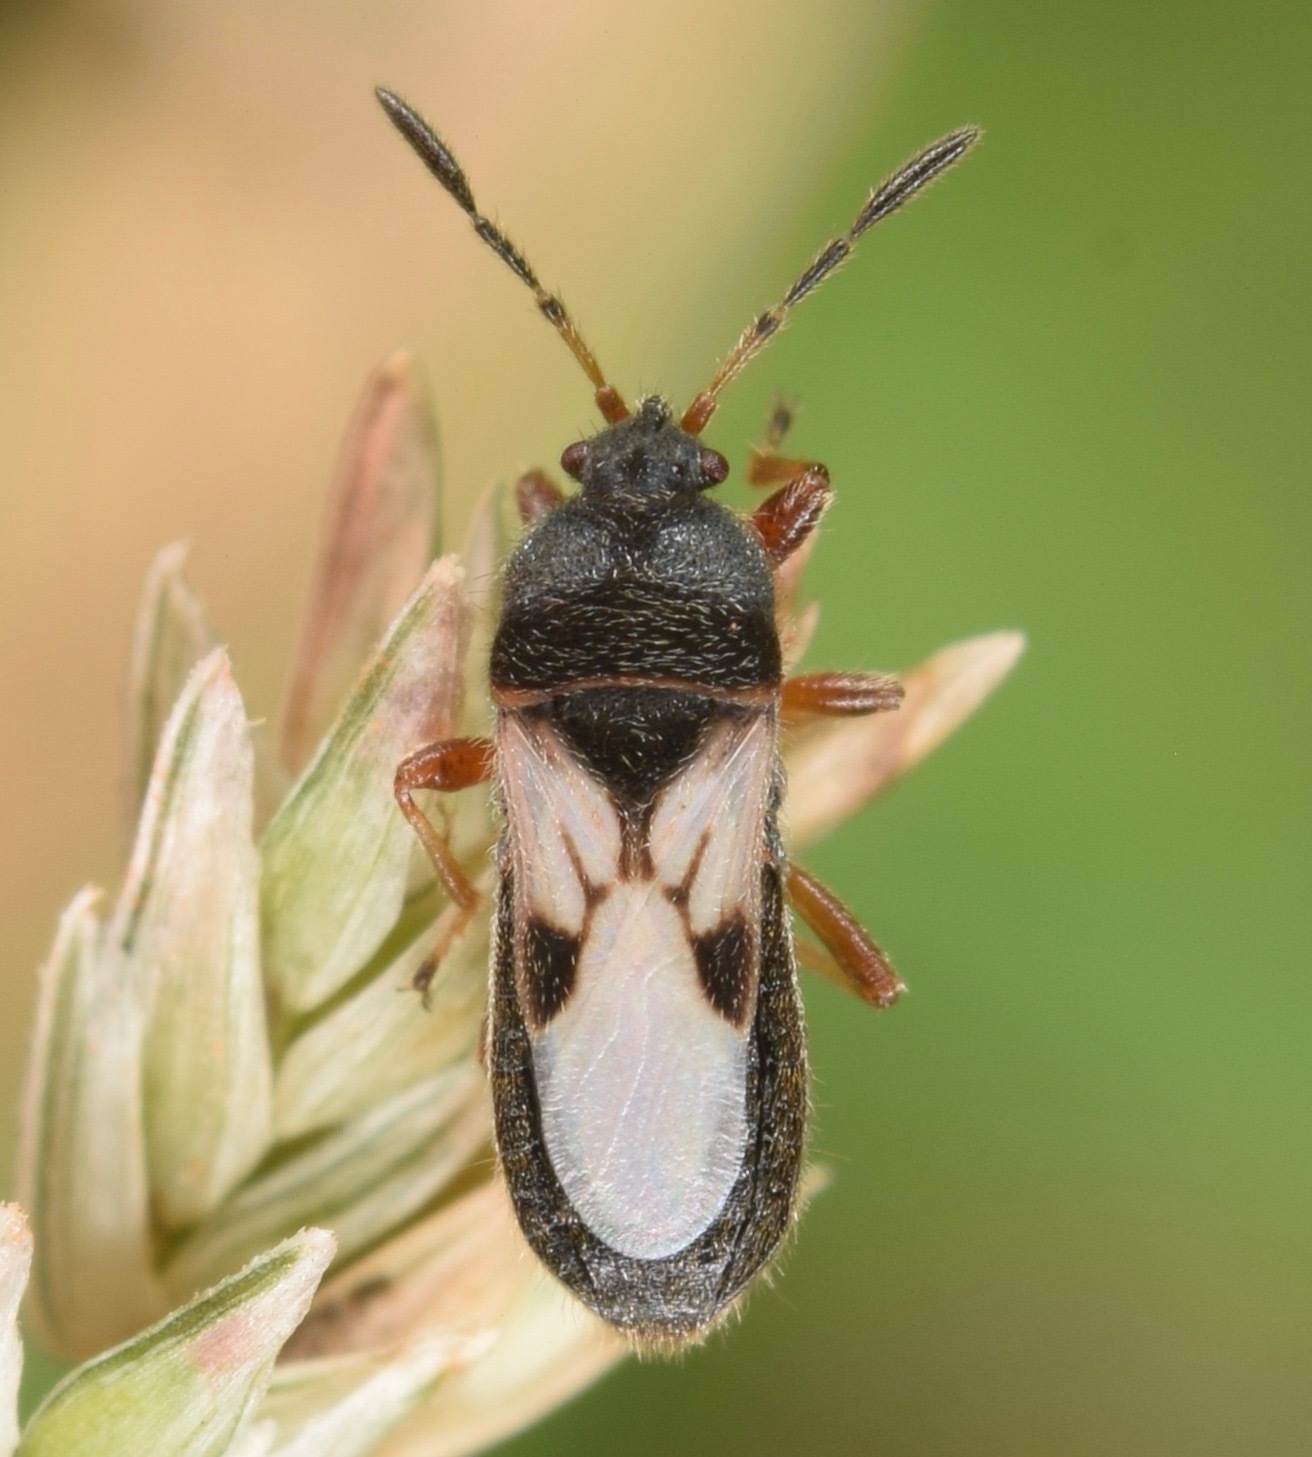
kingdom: Animalia
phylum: Arthropoda
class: Insecta
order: Hemiptera
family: Blissidae
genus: Blissus
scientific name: Blissus leucopterus
